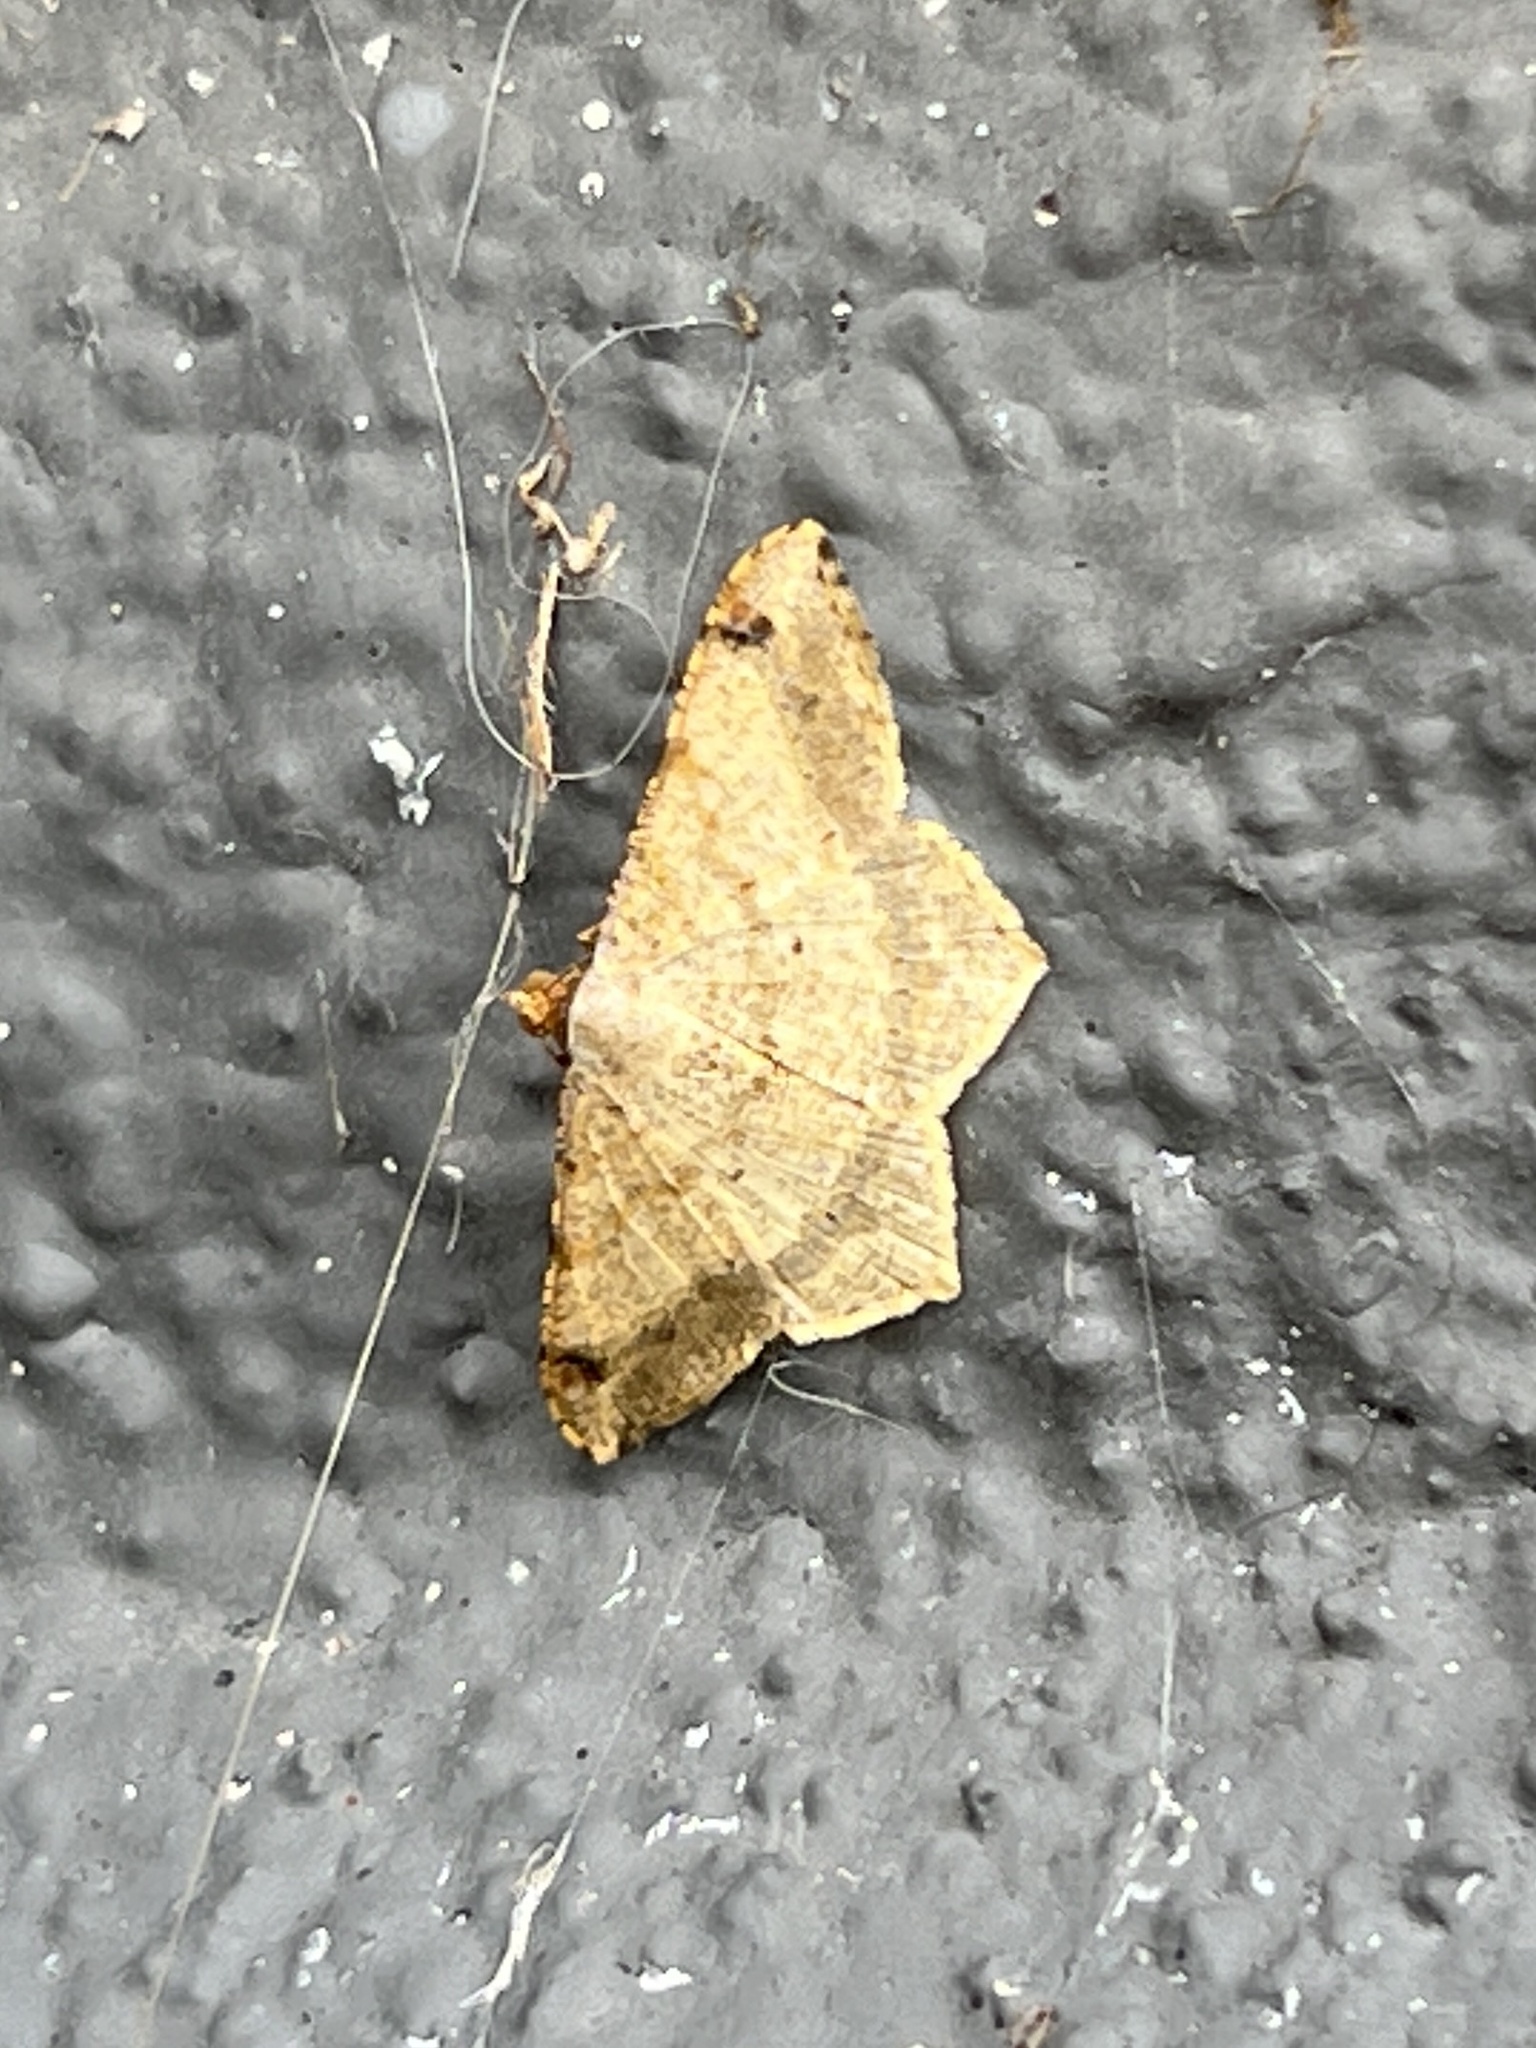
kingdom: Animalia
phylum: Arthropoda
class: Insecta
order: Lepidoptera
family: Geometridae
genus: Macaria
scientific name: Macaria abydata
